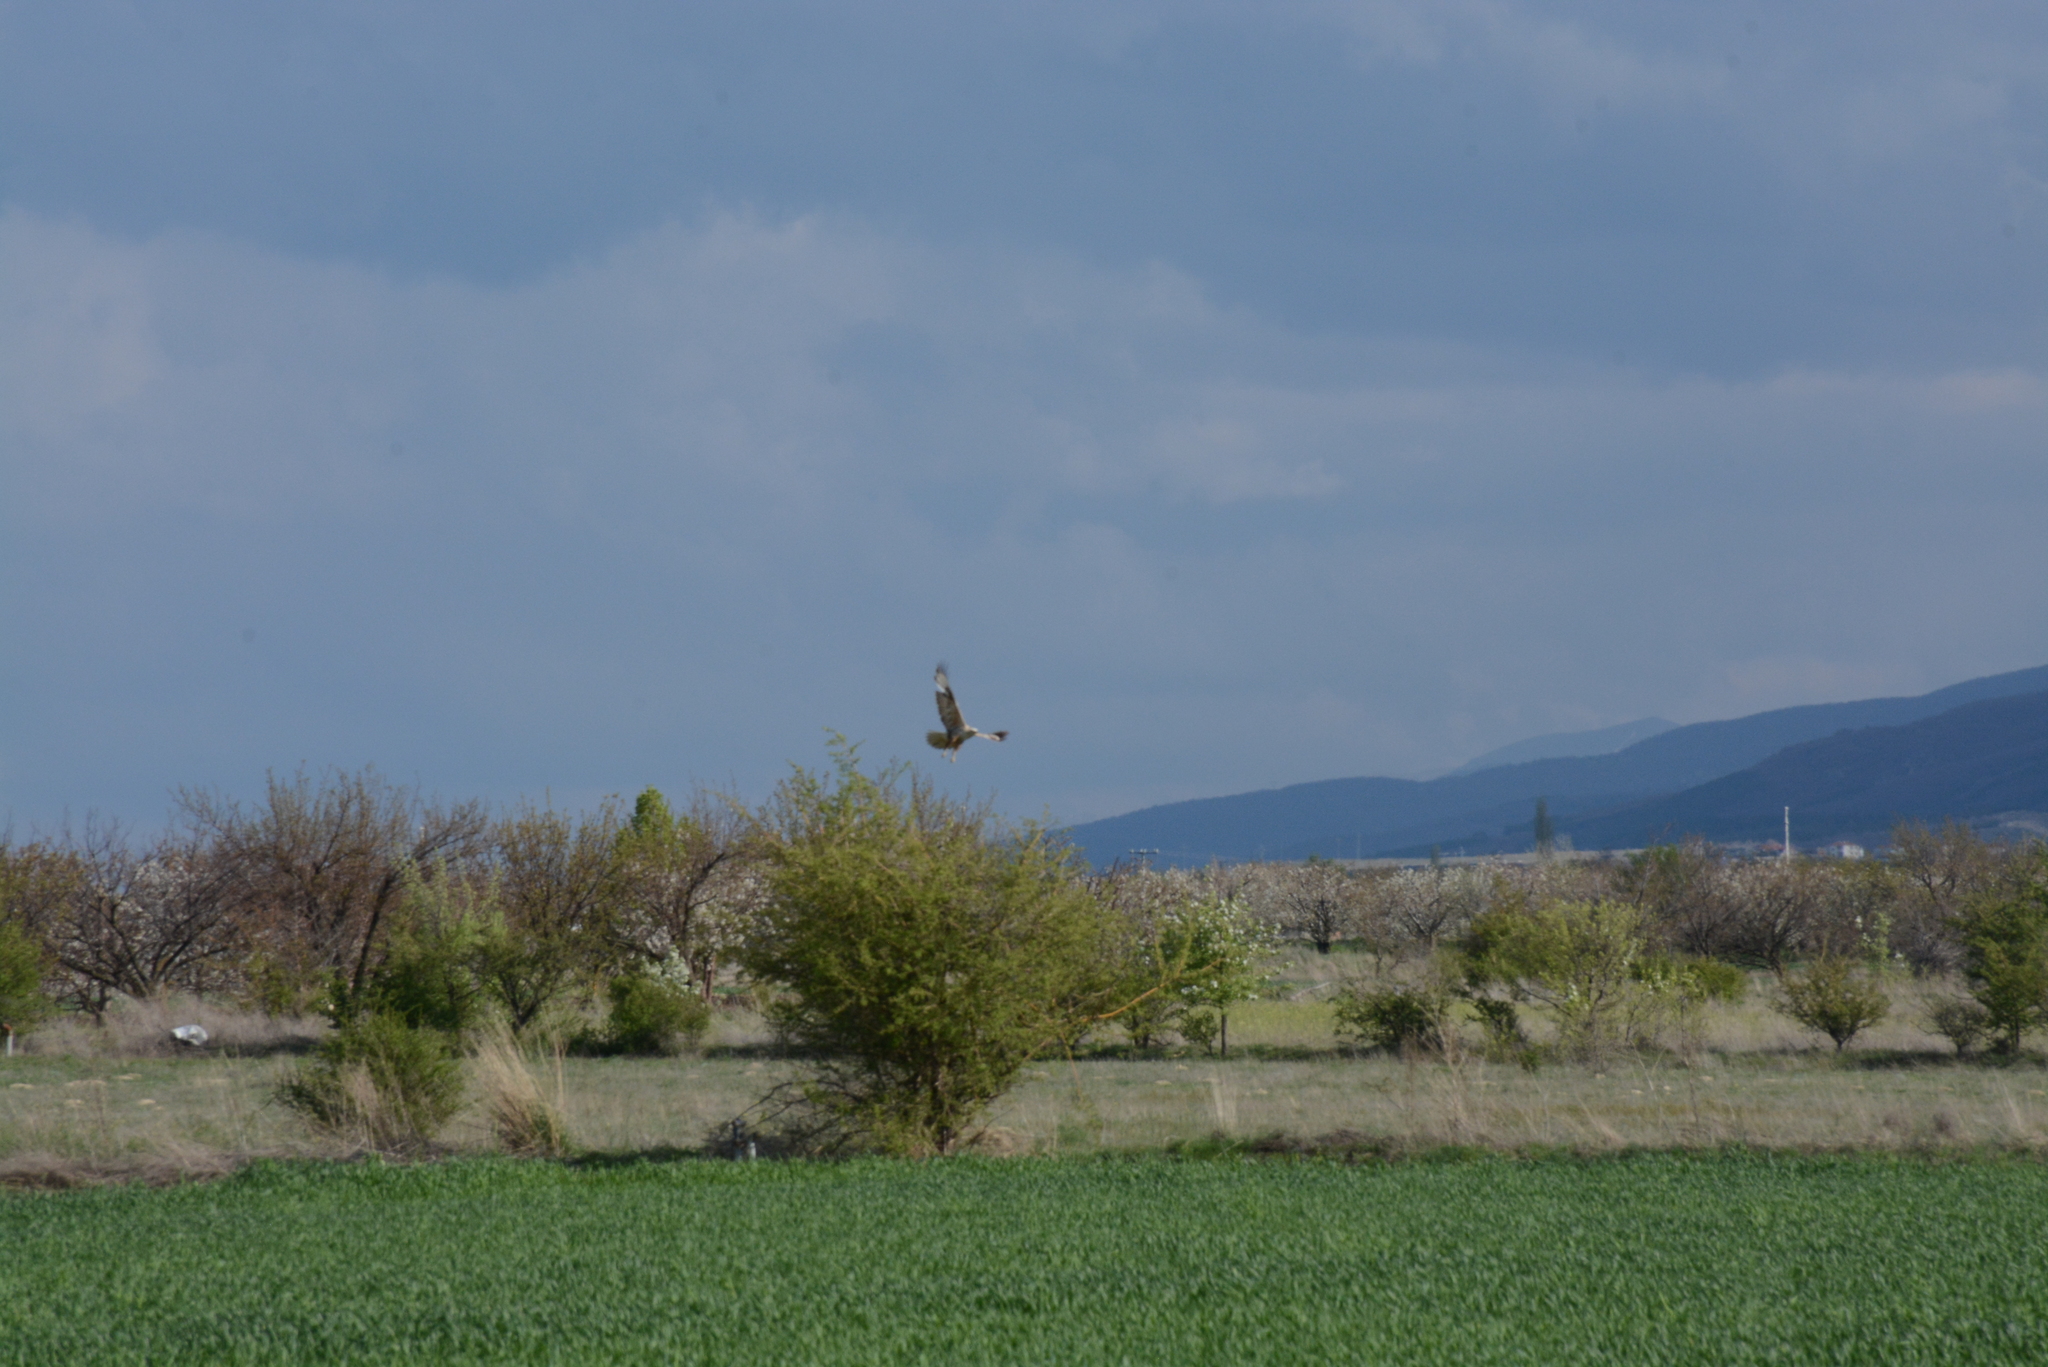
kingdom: Animalia
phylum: Chordata
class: Aves
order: Accipitriformes
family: Accipitridae
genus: Buteo
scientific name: Buteo rufinus
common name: Long-legged buzzard
